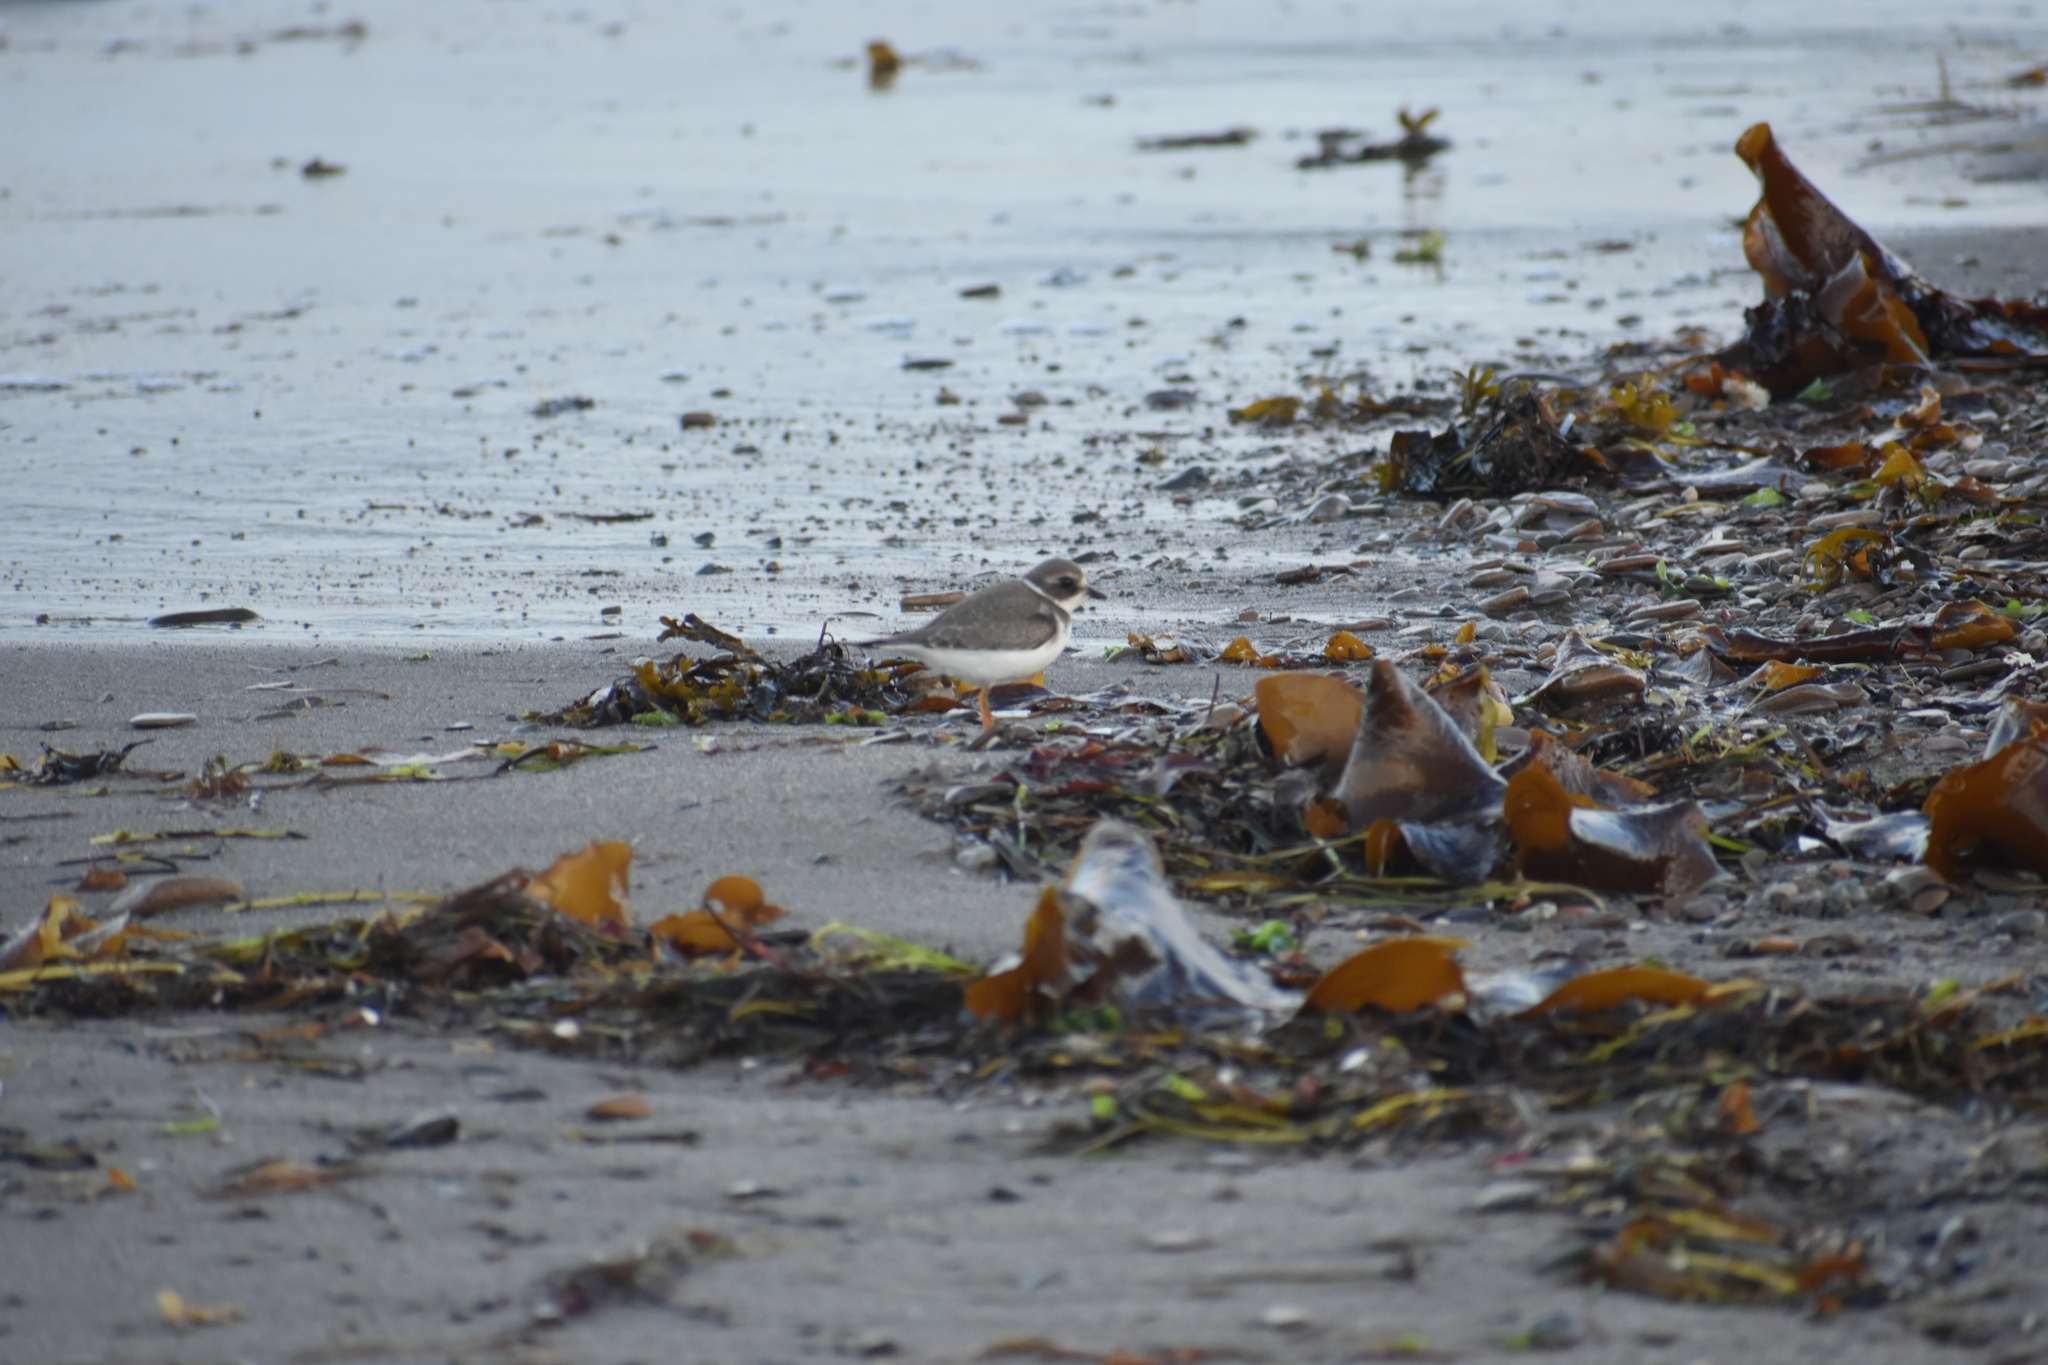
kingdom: Animalia
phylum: Chordata
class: Aves
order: Charadriiformes
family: Charadriidae
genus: Charadrius
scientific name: Charadrius semipalmatus
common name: Semipalmated plover
